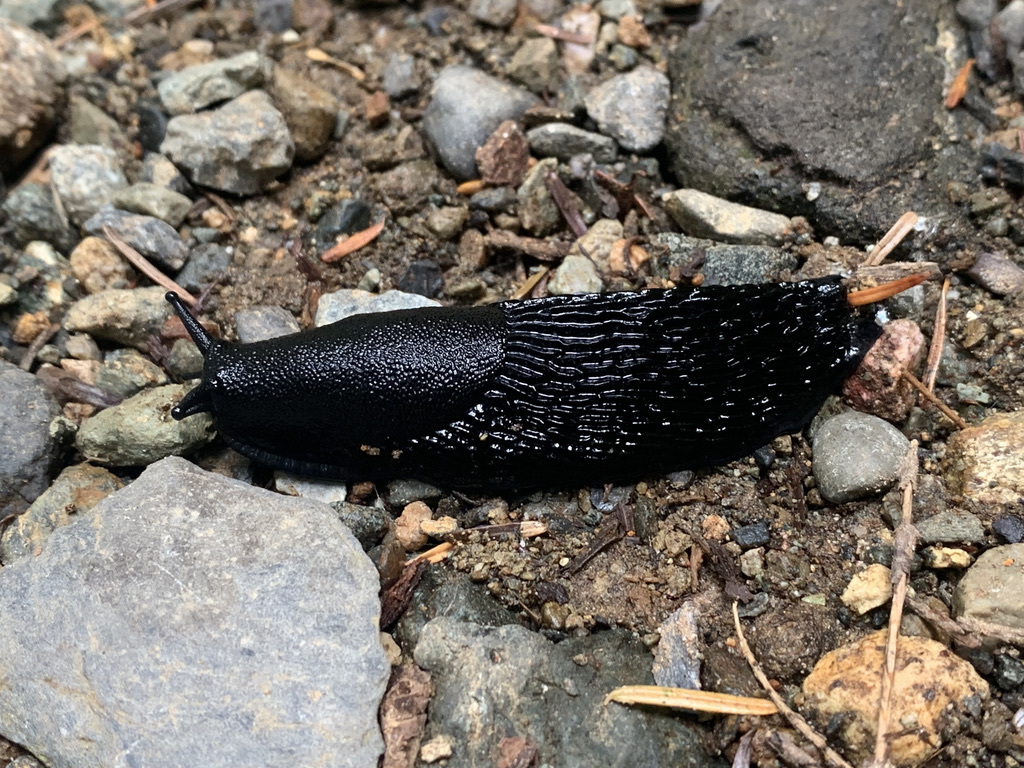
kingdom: Animalia
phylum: Mollusca
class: Gastropoda
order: Stylommatophora
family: Arionidae
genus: Arion
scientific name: Arion
